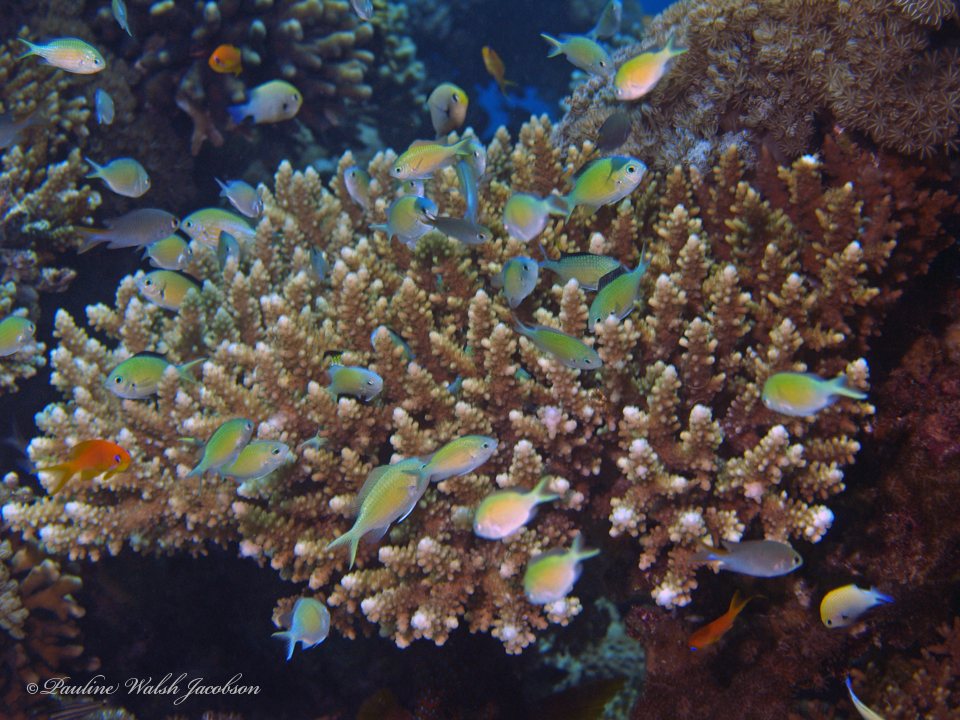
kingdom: Animalia
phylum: Chordata
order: Perciformes
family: Pomacentridae
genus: Chromis
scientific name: Chromis viridis
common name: Blue-green chromis
